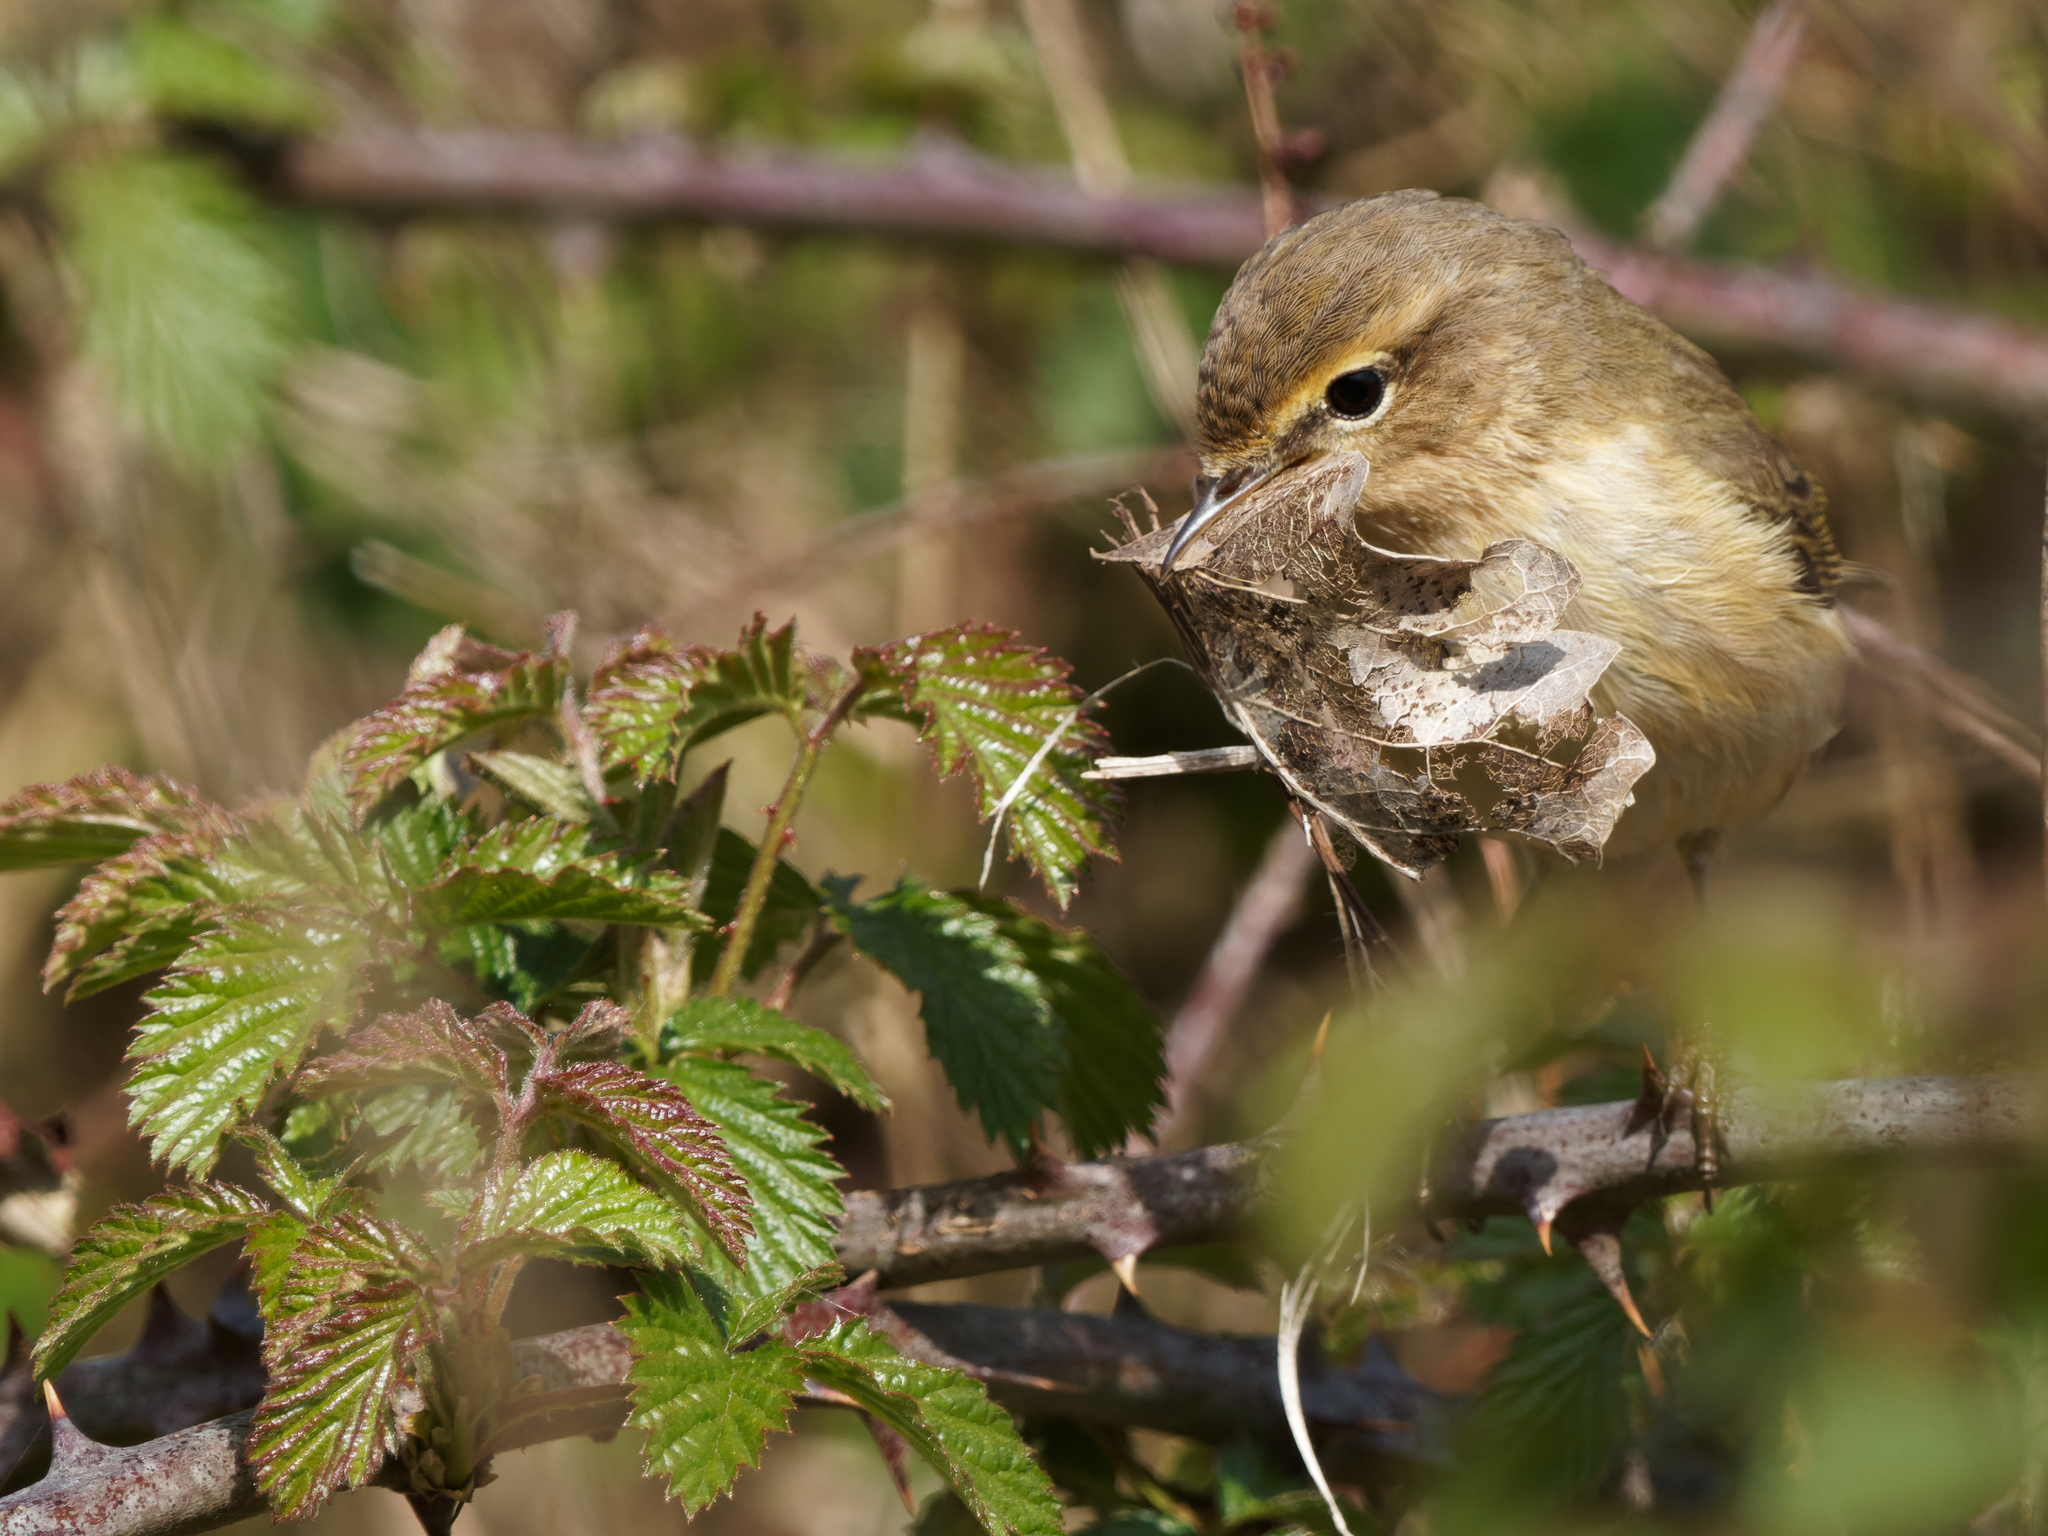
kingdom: Animalia
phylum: Chordata
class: Aves
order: Passeriformes
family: Phylloscopidae
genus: Phylloscopus
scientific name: Phylloscopus collybita
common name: Common chiffchaff
